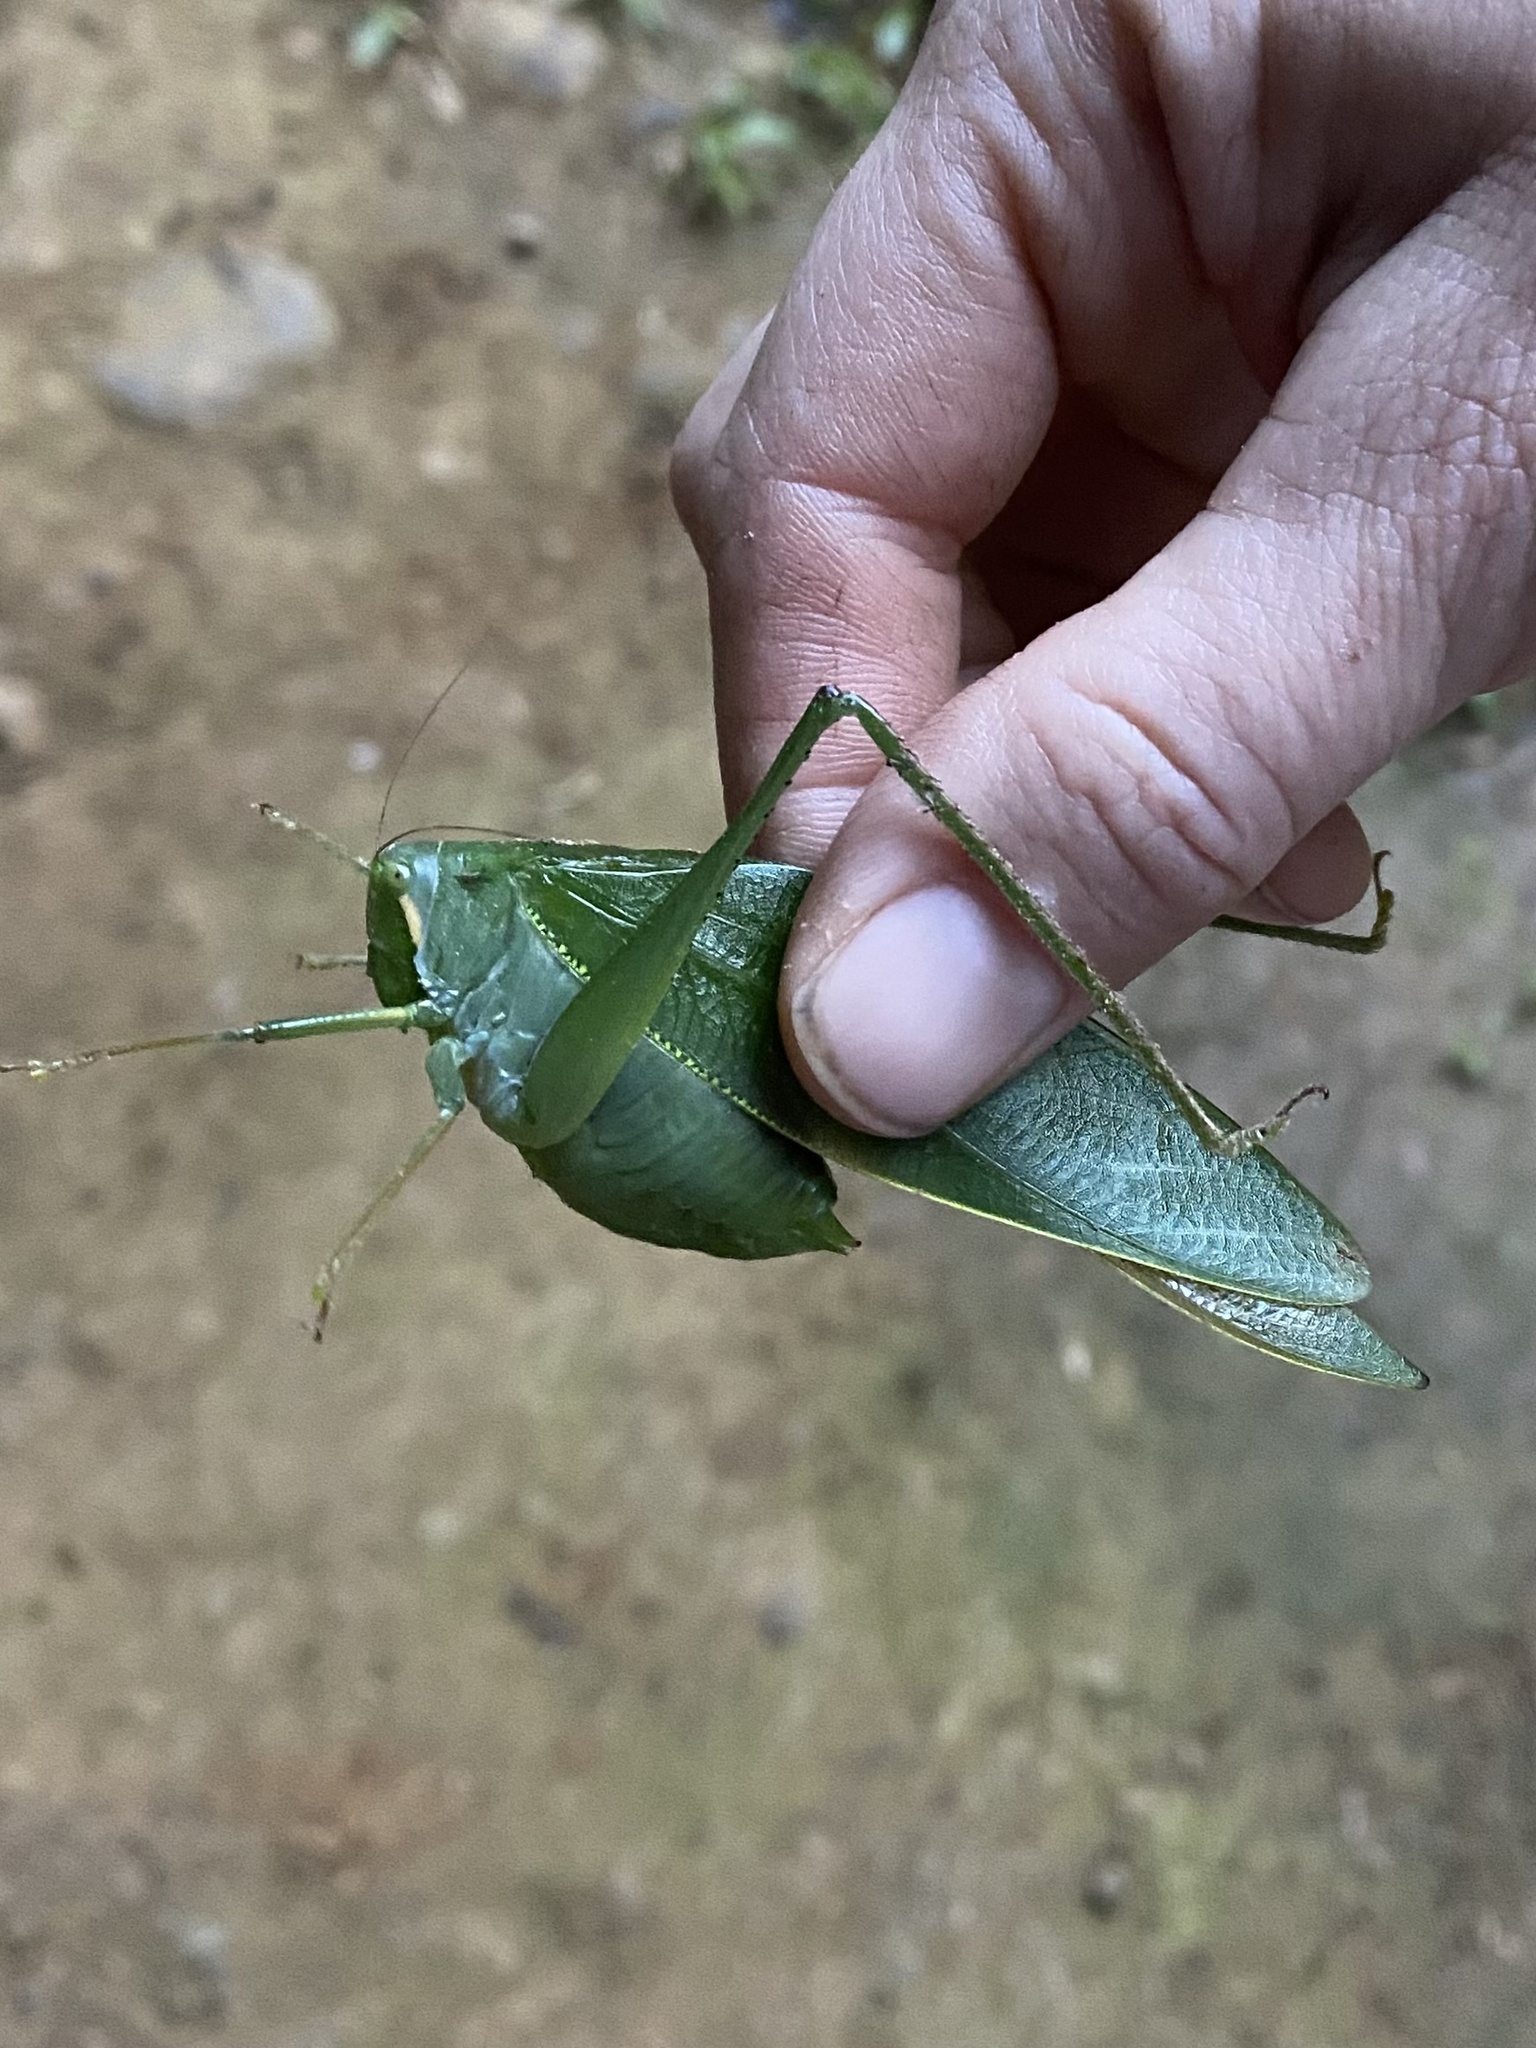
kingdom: Animalia
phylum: Arthropoda
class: Insecta
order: Orthoptera
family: Tettigoniidae
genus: Philophyllia
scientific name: Philophyllia ingens
